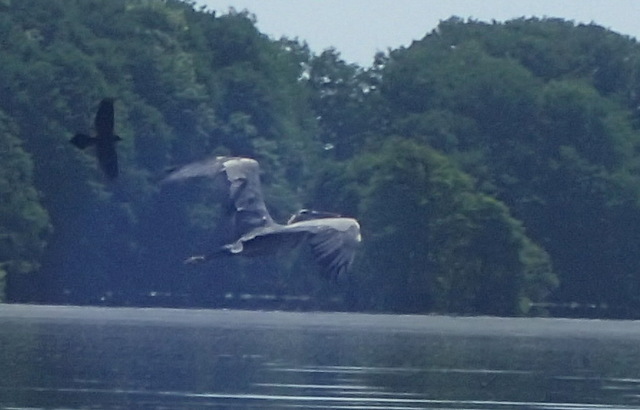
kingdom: Animalia
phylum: Chordata
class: Aves
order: Pelecaniformes
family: Ardeidae
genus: Ardea
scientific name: Ardea herodias
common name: Great blue heron
